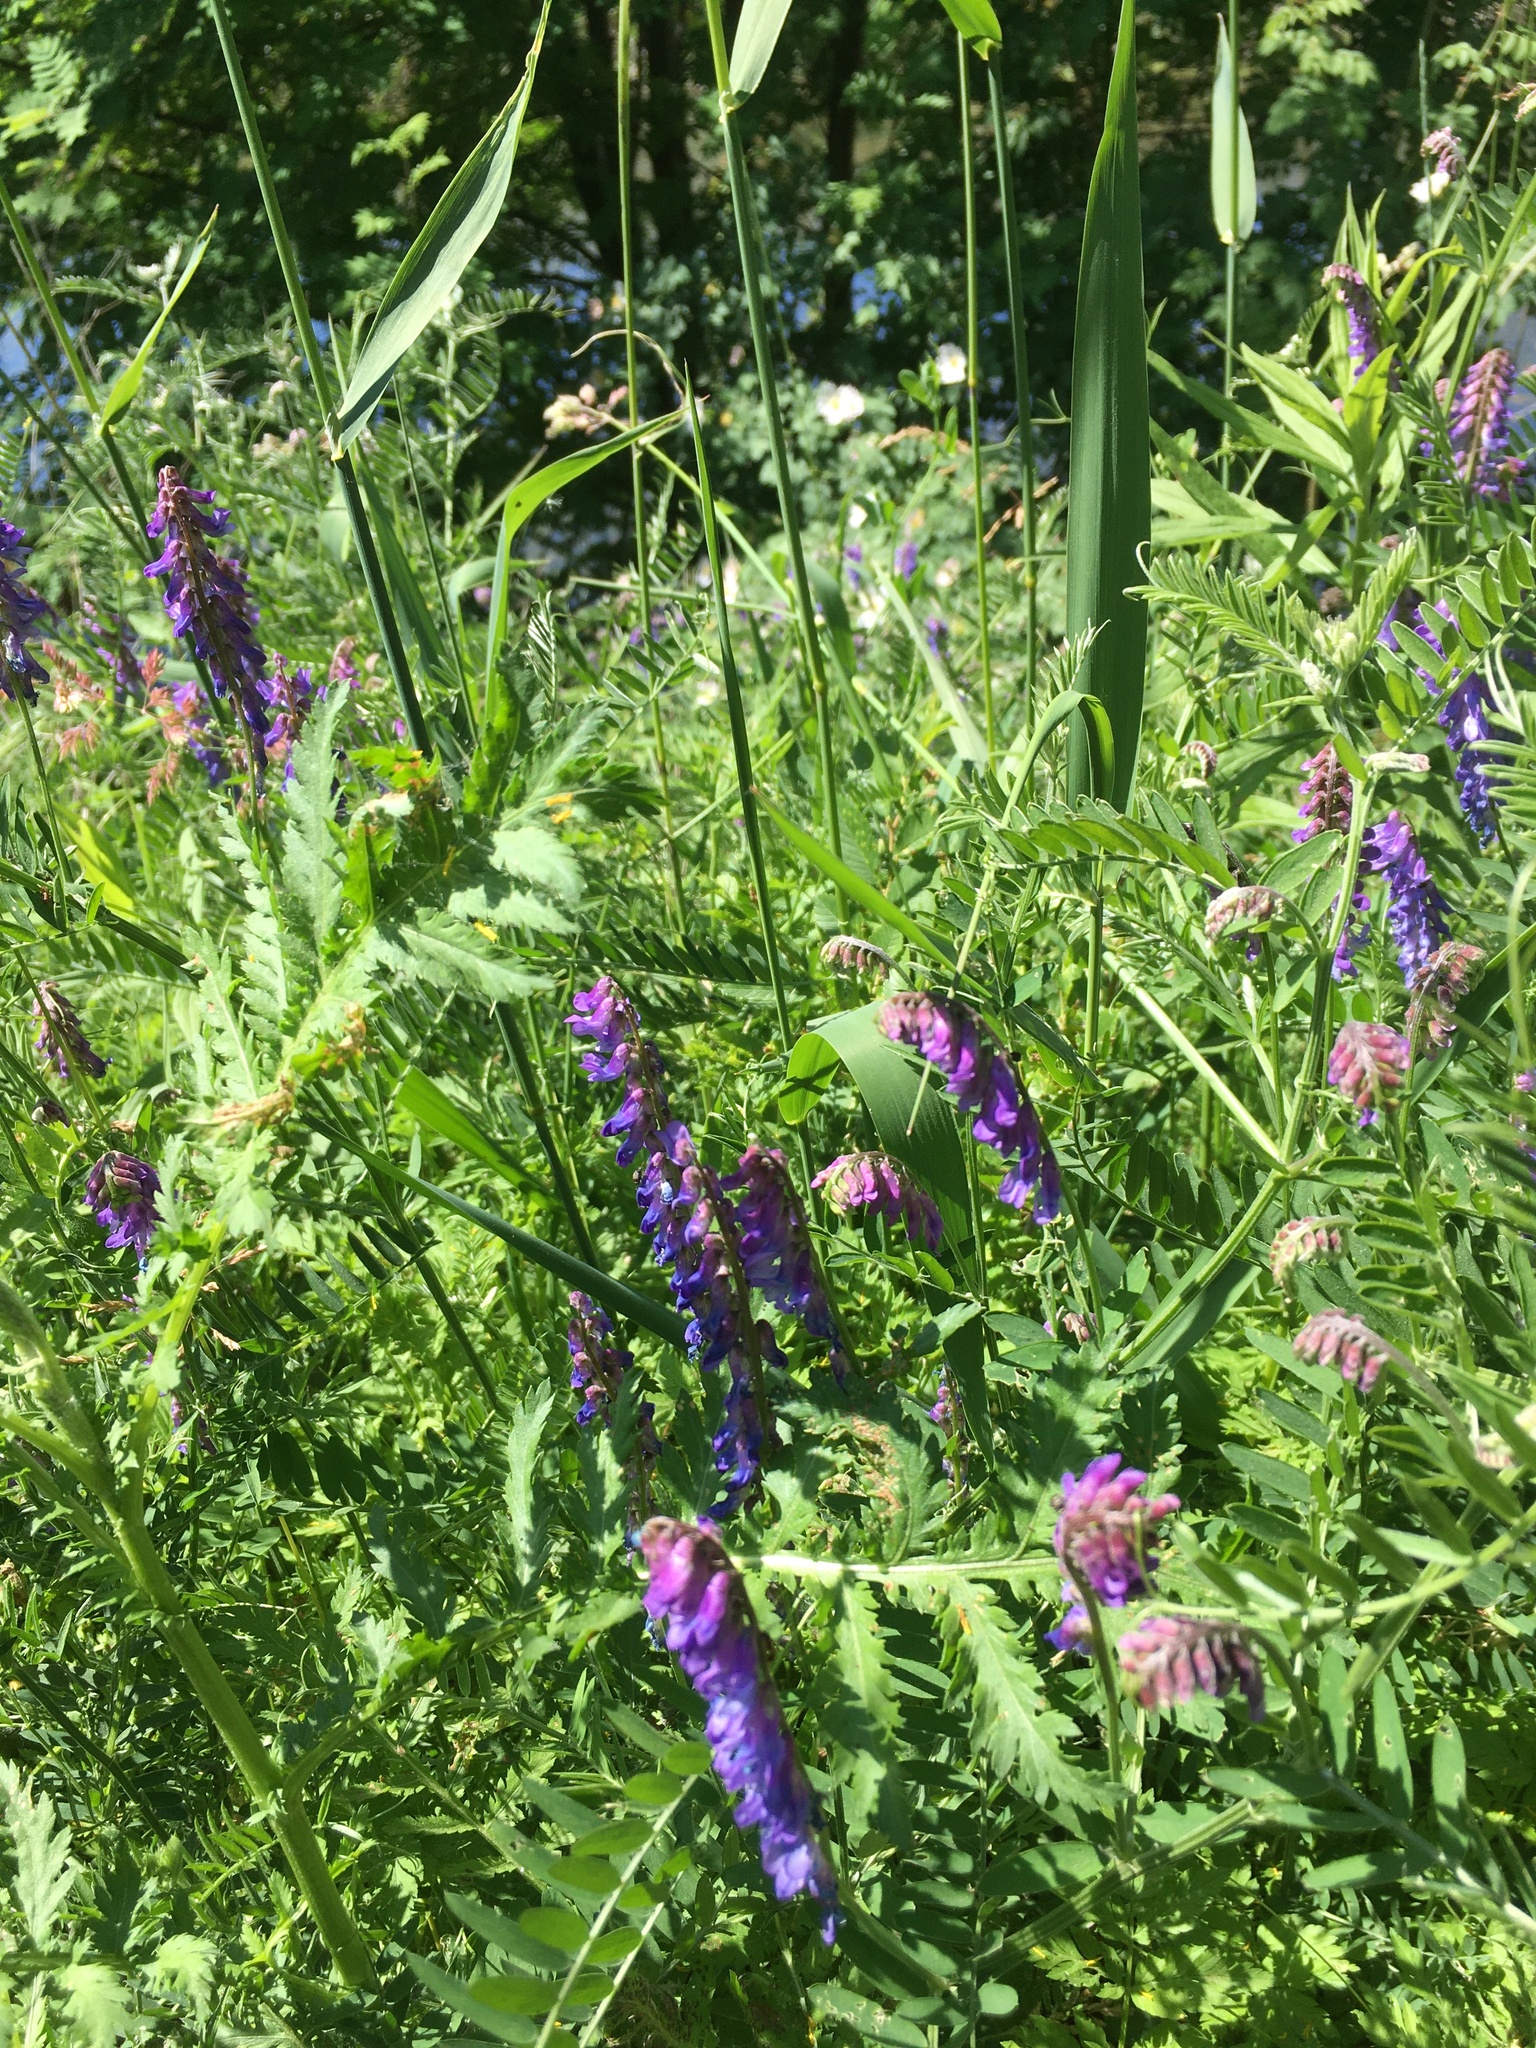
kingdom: Plantae
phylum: Tracheophyta
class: Magnoliopsida
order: Fabales
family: Fabaceae
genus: Vicia
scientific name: Vicia cracca
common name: Bird vetch
